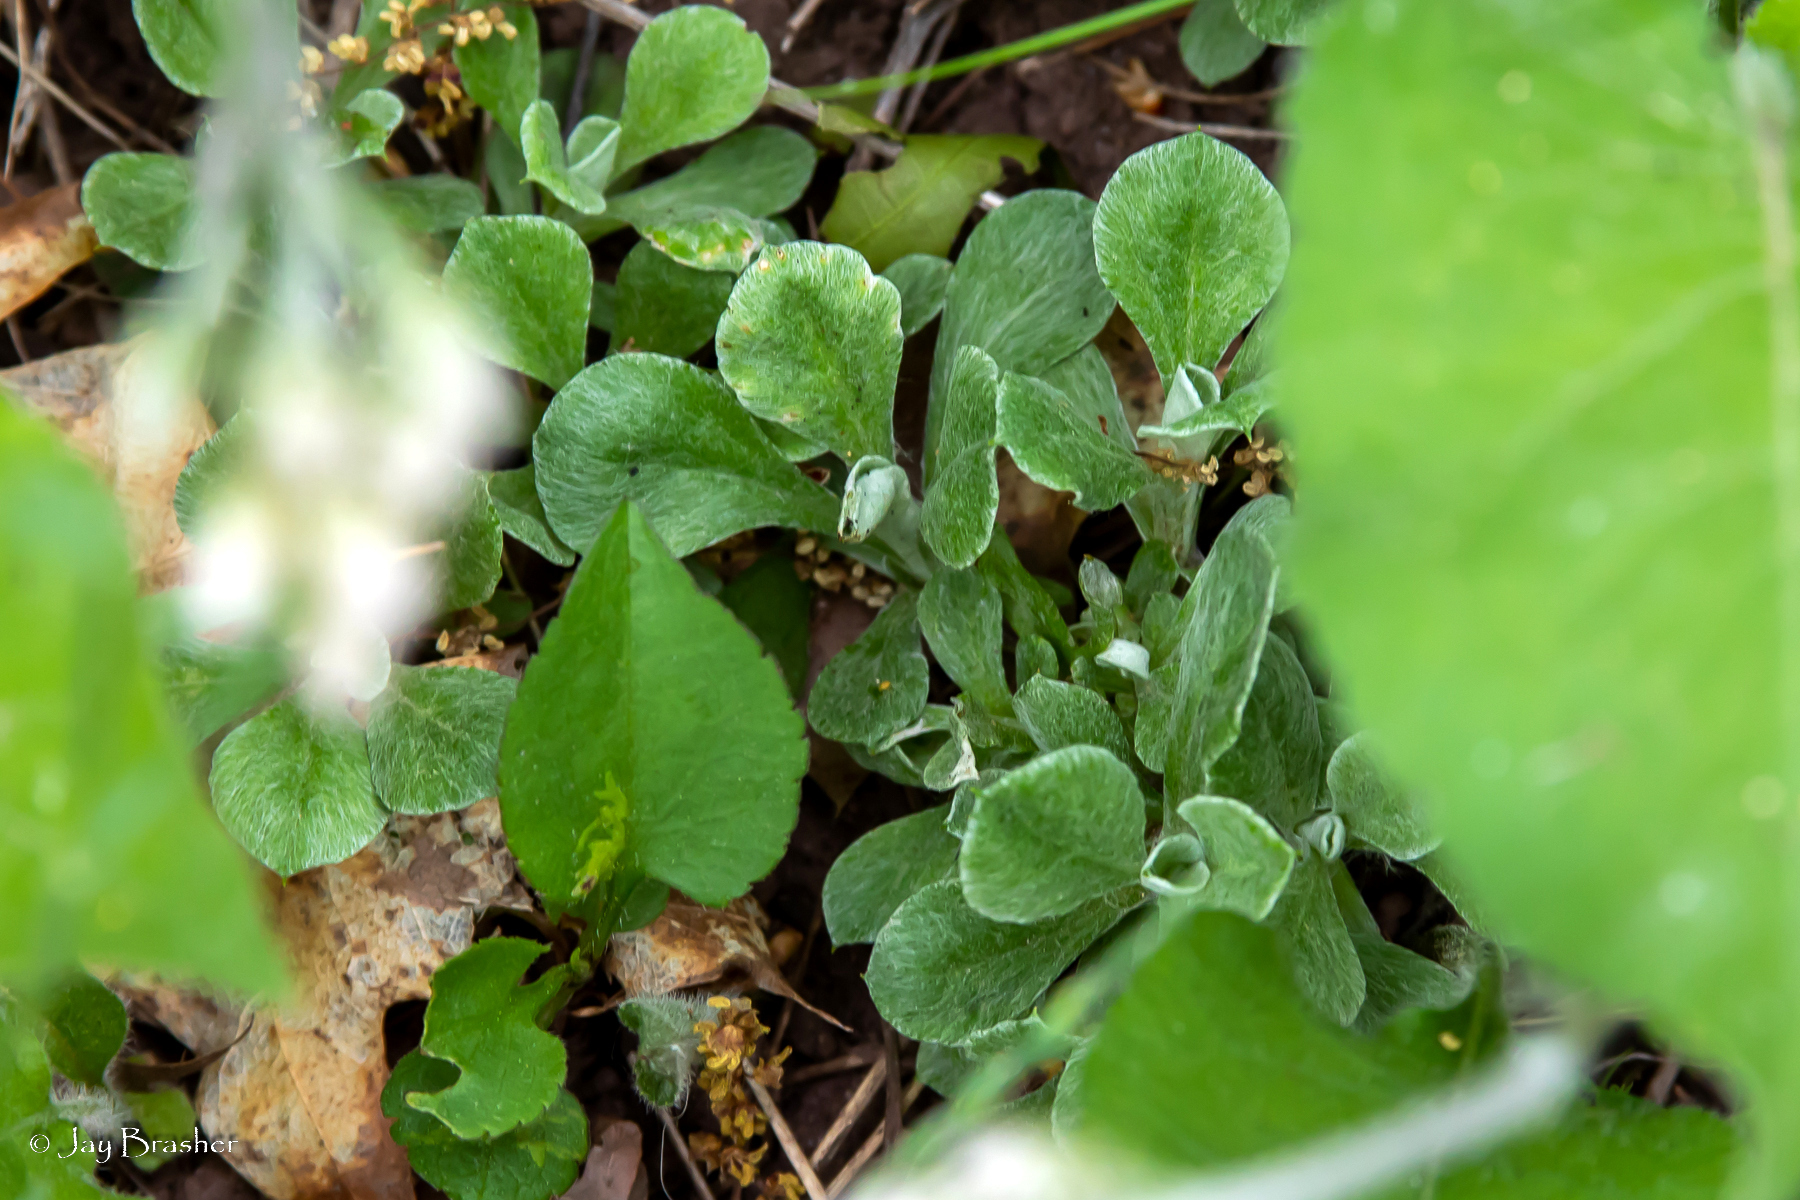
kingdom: Plantae
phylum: Tracheophyta
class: Magnoliopsida
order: Asterales
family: Asteraceae
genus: Antennaria
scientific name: Antennaria howellii
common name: Howell's pussytoes
